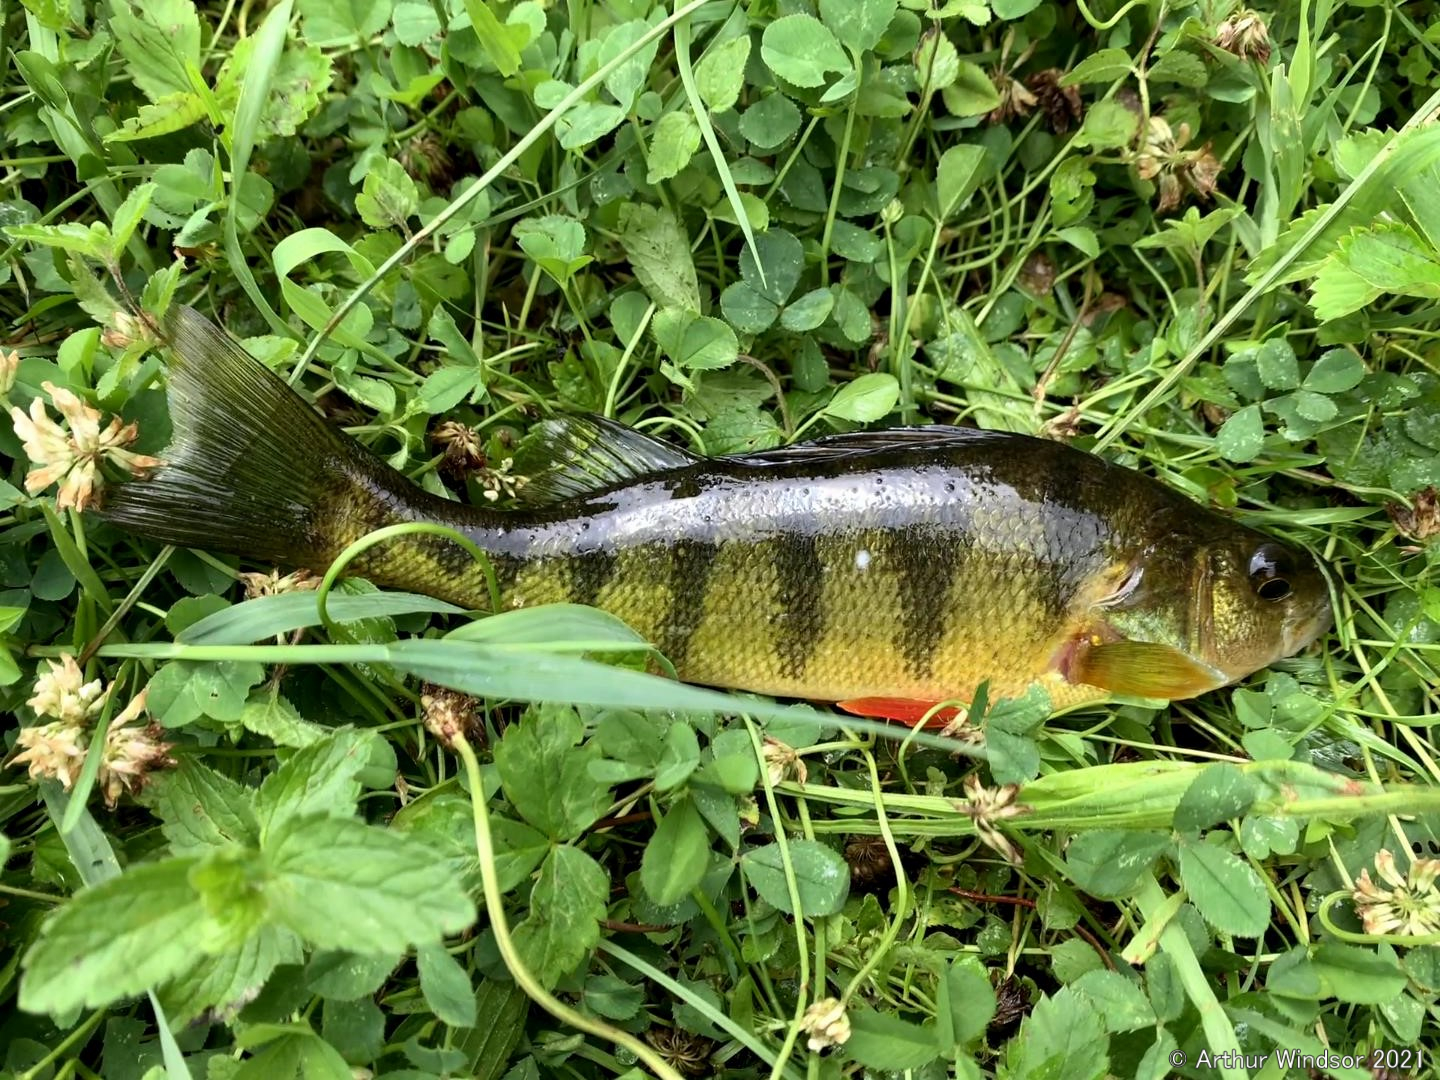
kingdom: Animalia
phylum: Chordata
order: Perciformes
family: Percidae
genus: Perca
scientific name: Perca flavescens
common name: Yellow perch
